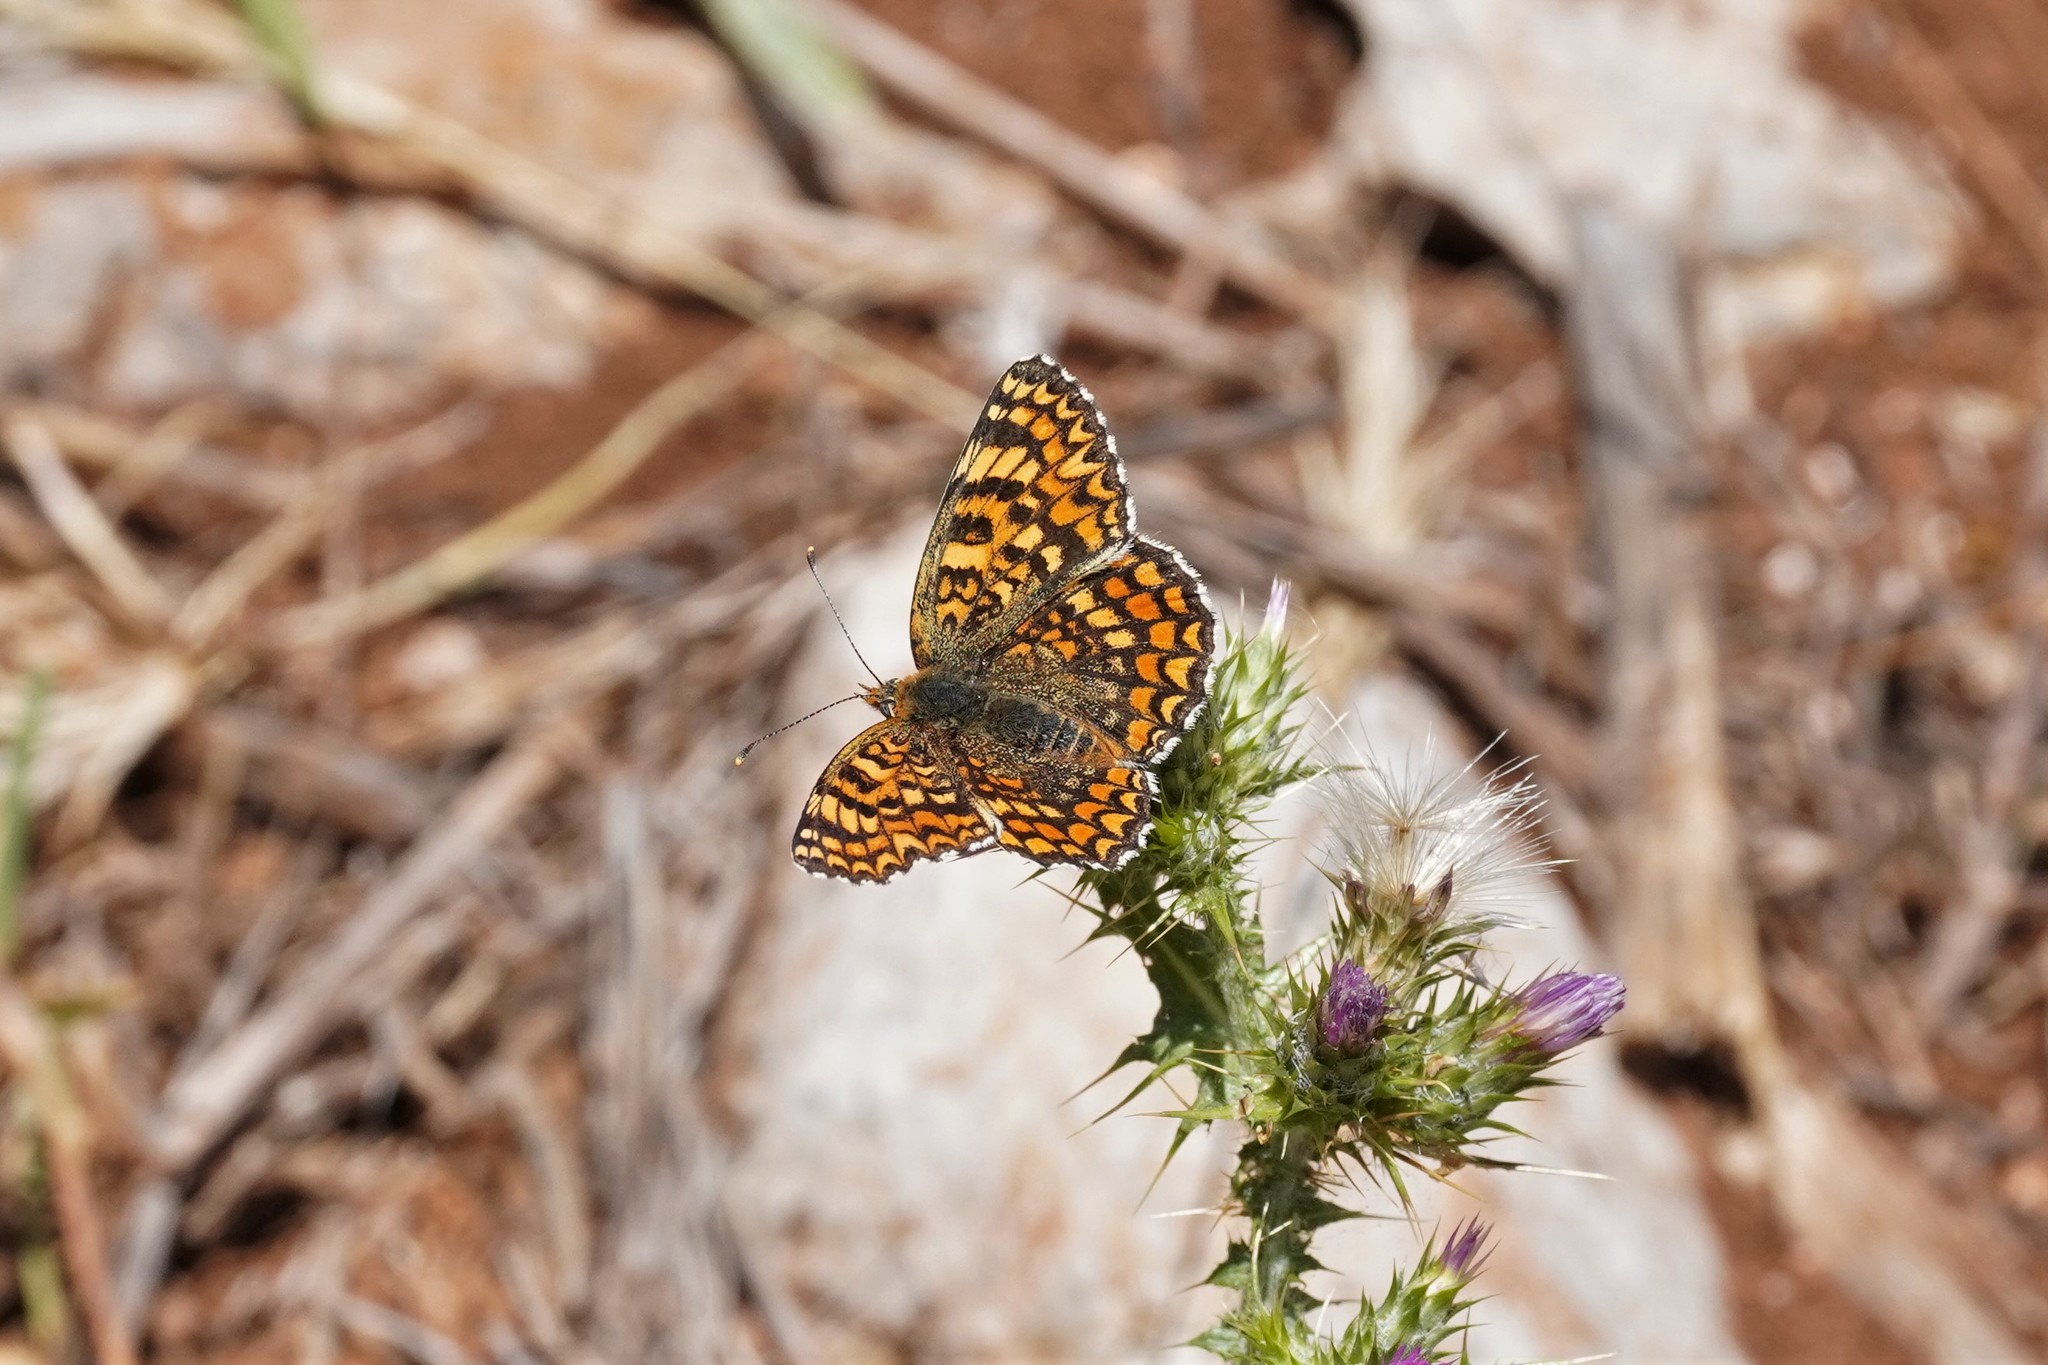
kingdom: Animalia
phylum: Arthropoda
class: Insecta
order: Lepidoptera
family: Nymphalidae
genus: Melitaea
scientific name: Melitaea phoebe
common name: Knapweed fritillary
